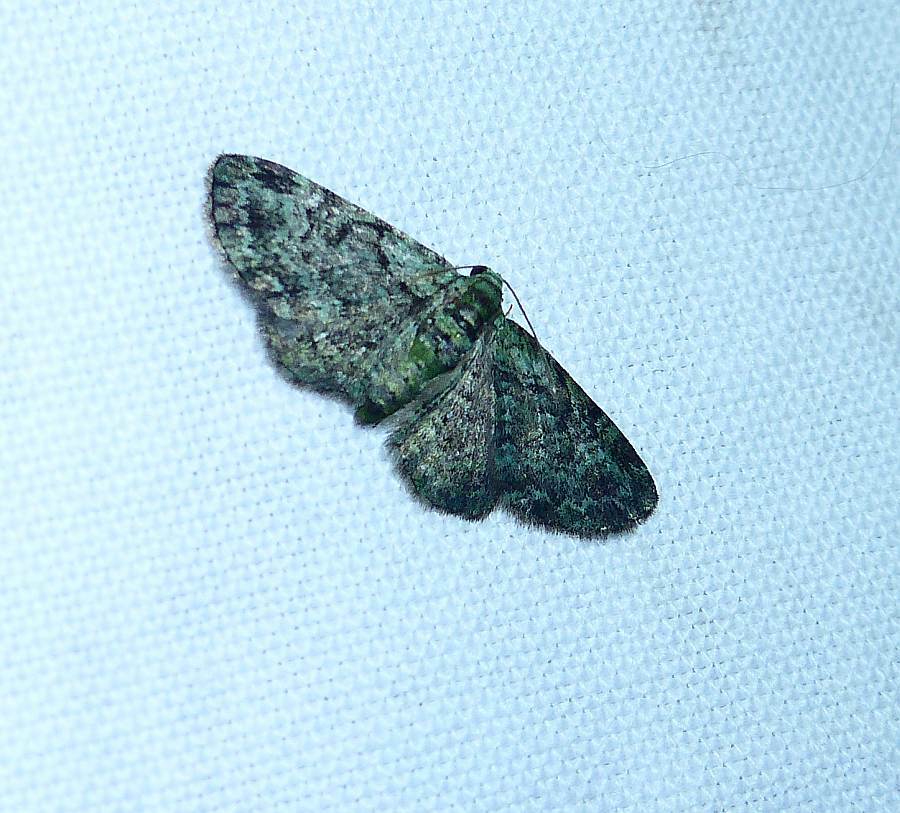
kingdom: Animalia
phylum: Arthropoda
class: Insecta
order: Lepidoptera
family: Geometridae
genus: Pasiphila
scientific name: Pasiphila rectangulata
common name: Green pug
